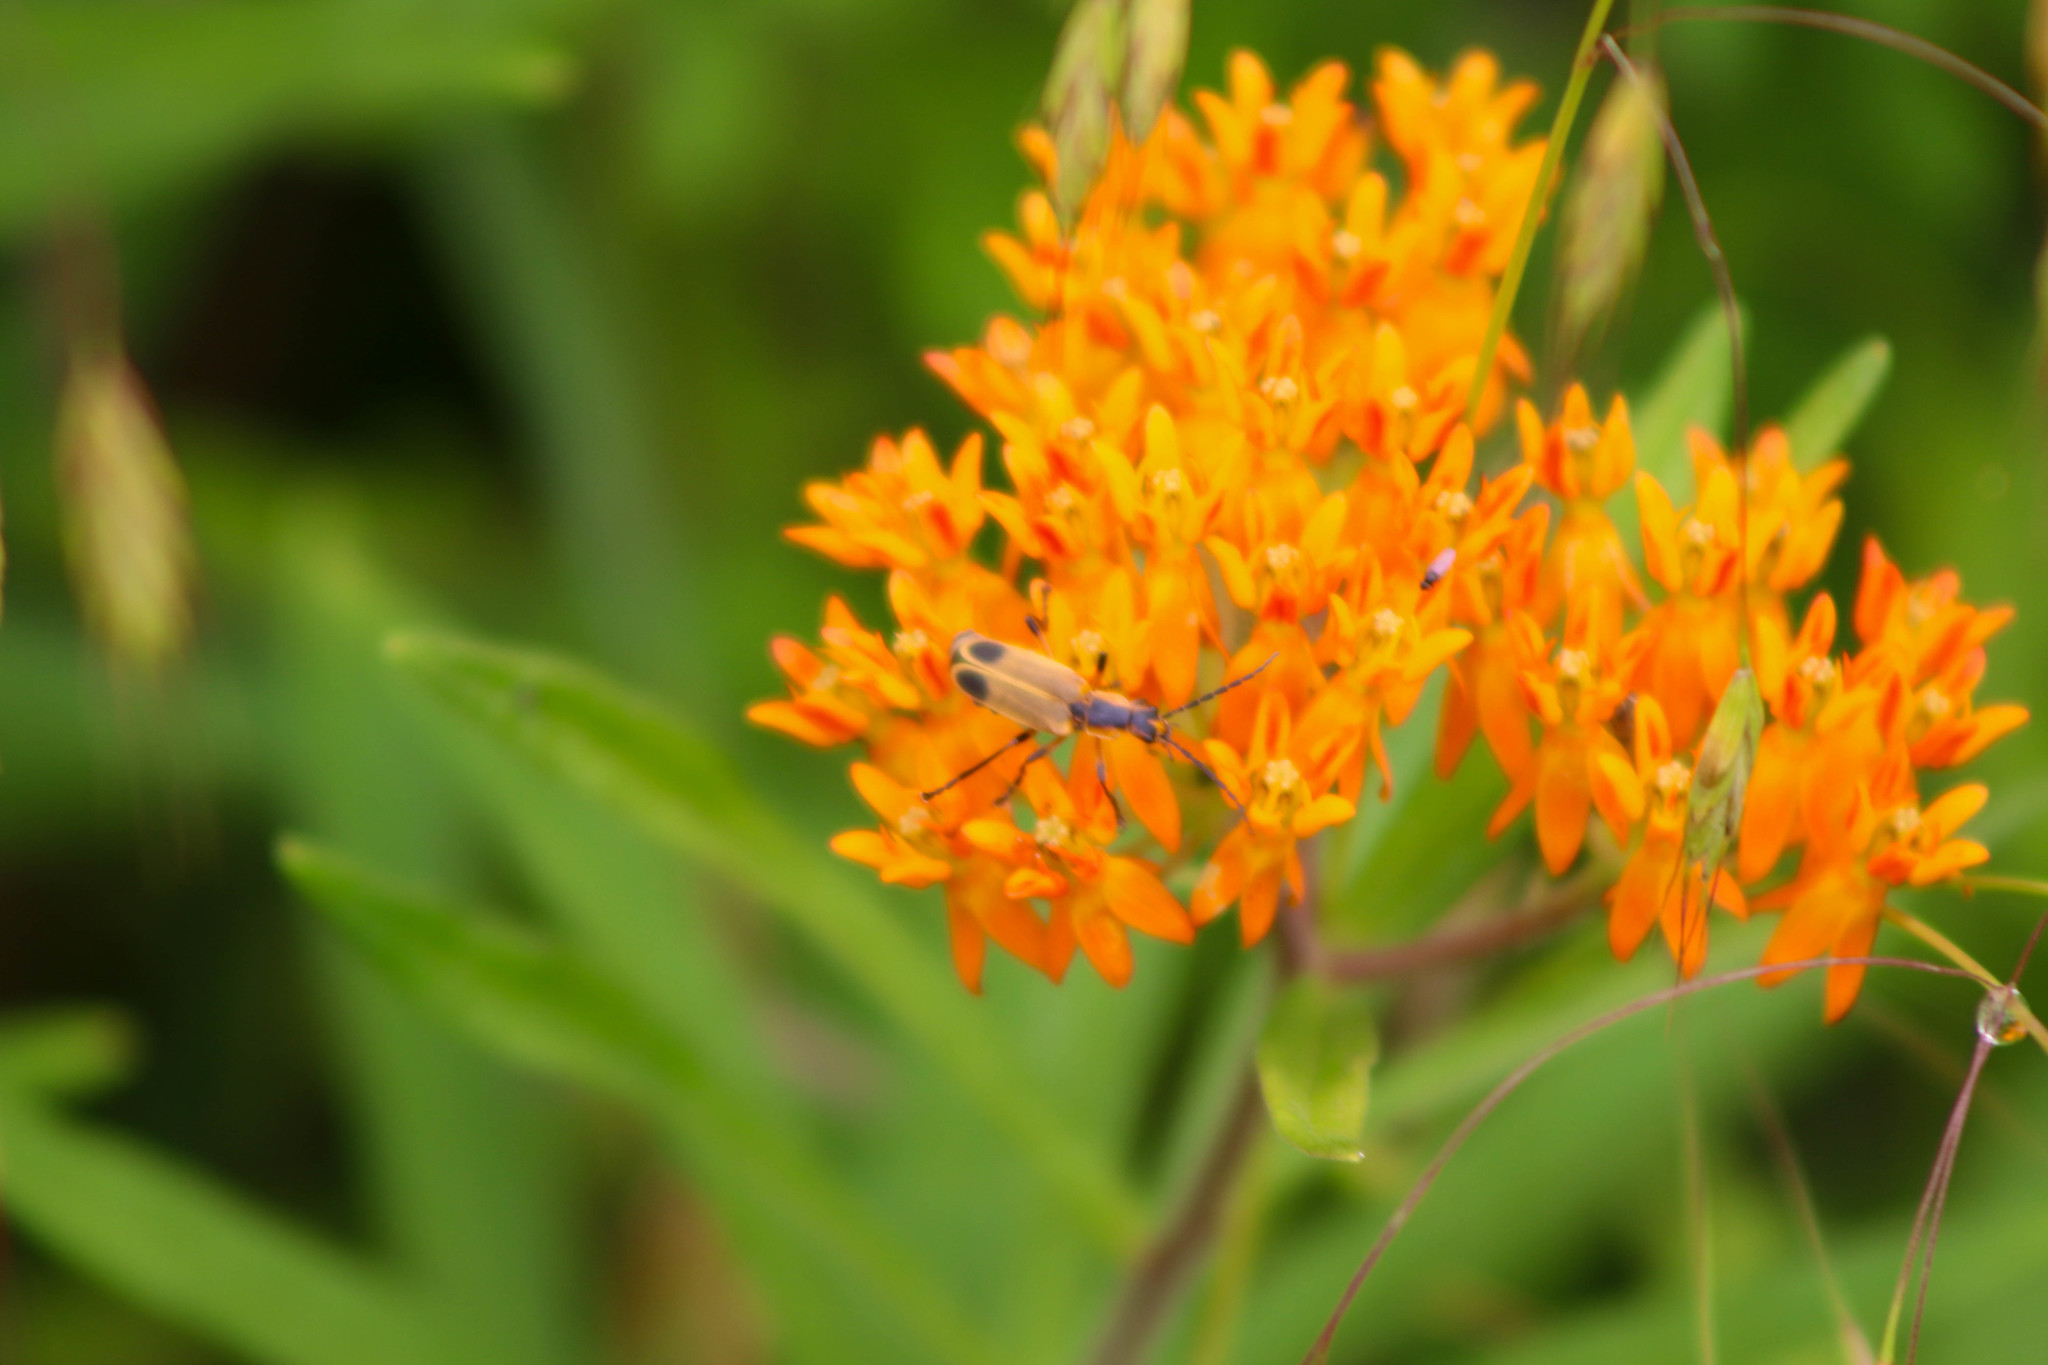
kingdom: Animalia
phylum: Arthropoda
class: Insecta
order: Coleoptera
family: Cantharidae
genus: Chauliognathus
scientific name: Chauliognathus marginatus
